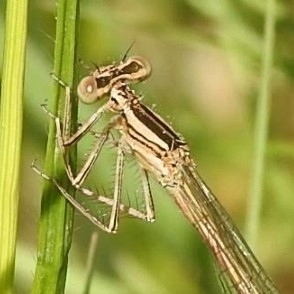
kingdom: Animalia
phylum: Arthropoda
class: Insecta
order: Odonata
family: Platycnemididae
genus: Platycnemis
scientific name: Platycnemis acutipennis
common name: Orange featherleg
